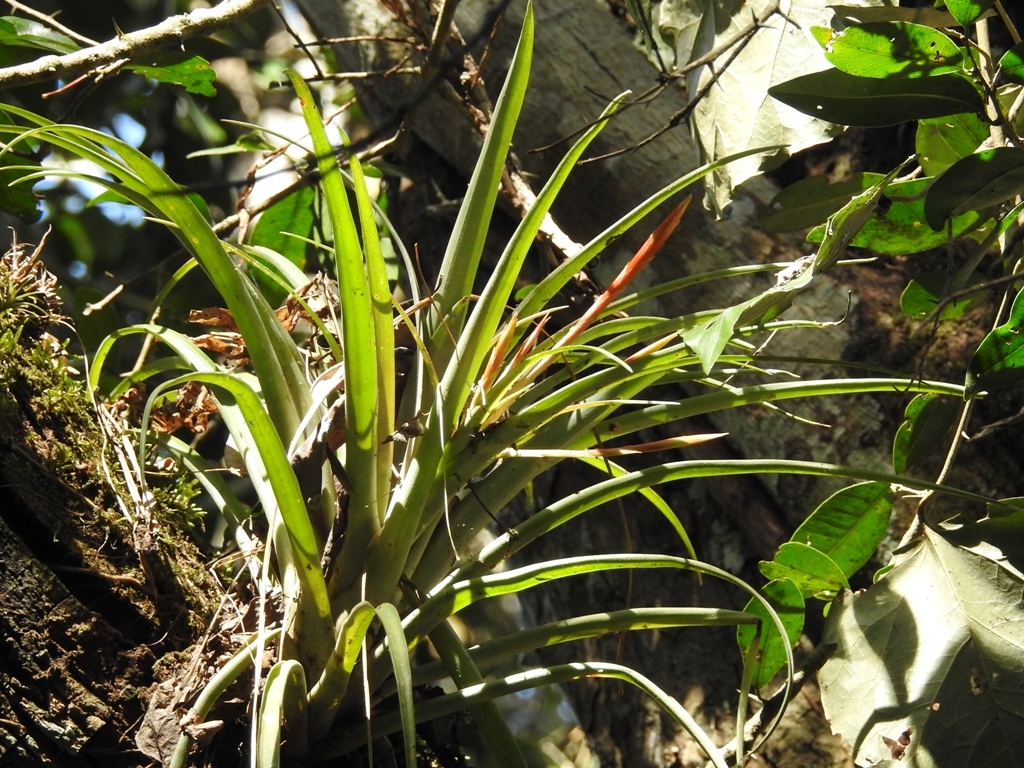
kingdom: Plantae
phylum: Tracheophyta
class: Liliopsida
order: Poales
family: Bromeliaceae
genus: Tillandsia
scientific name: Tillandsia flabellata
